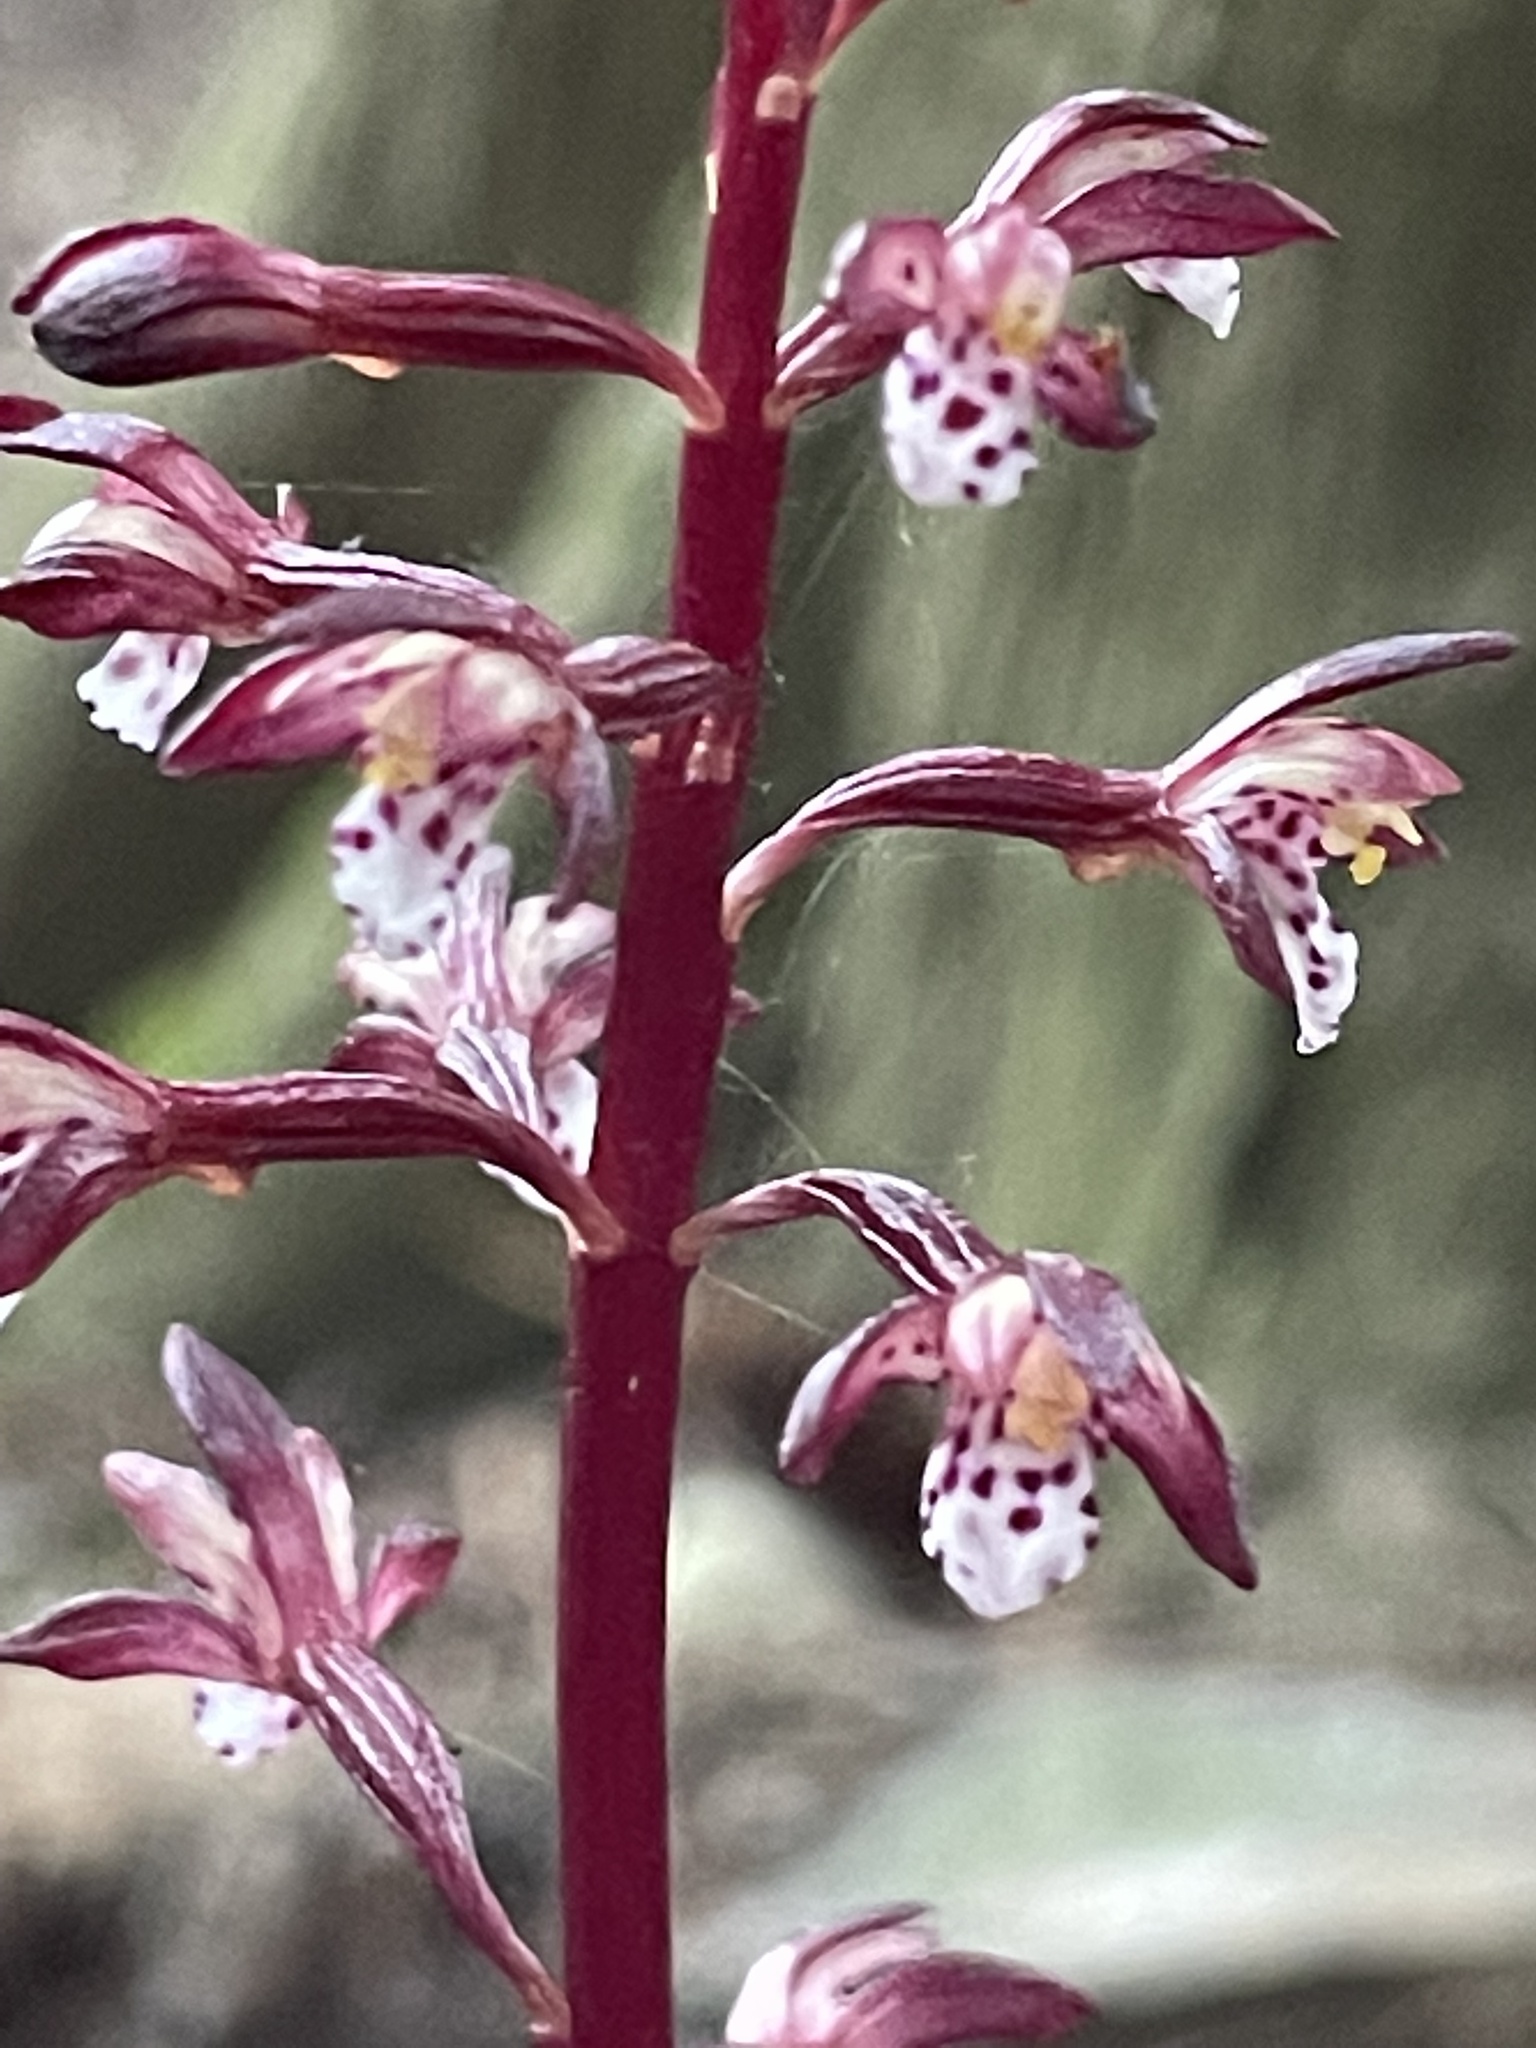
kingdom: Plantae
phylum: Tracheophyta
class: Liliopsida
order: Asparagales
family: Orchidaceae
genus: Corallorhiza
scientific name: Corallorhiza maculata
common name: Spotted coralroot
